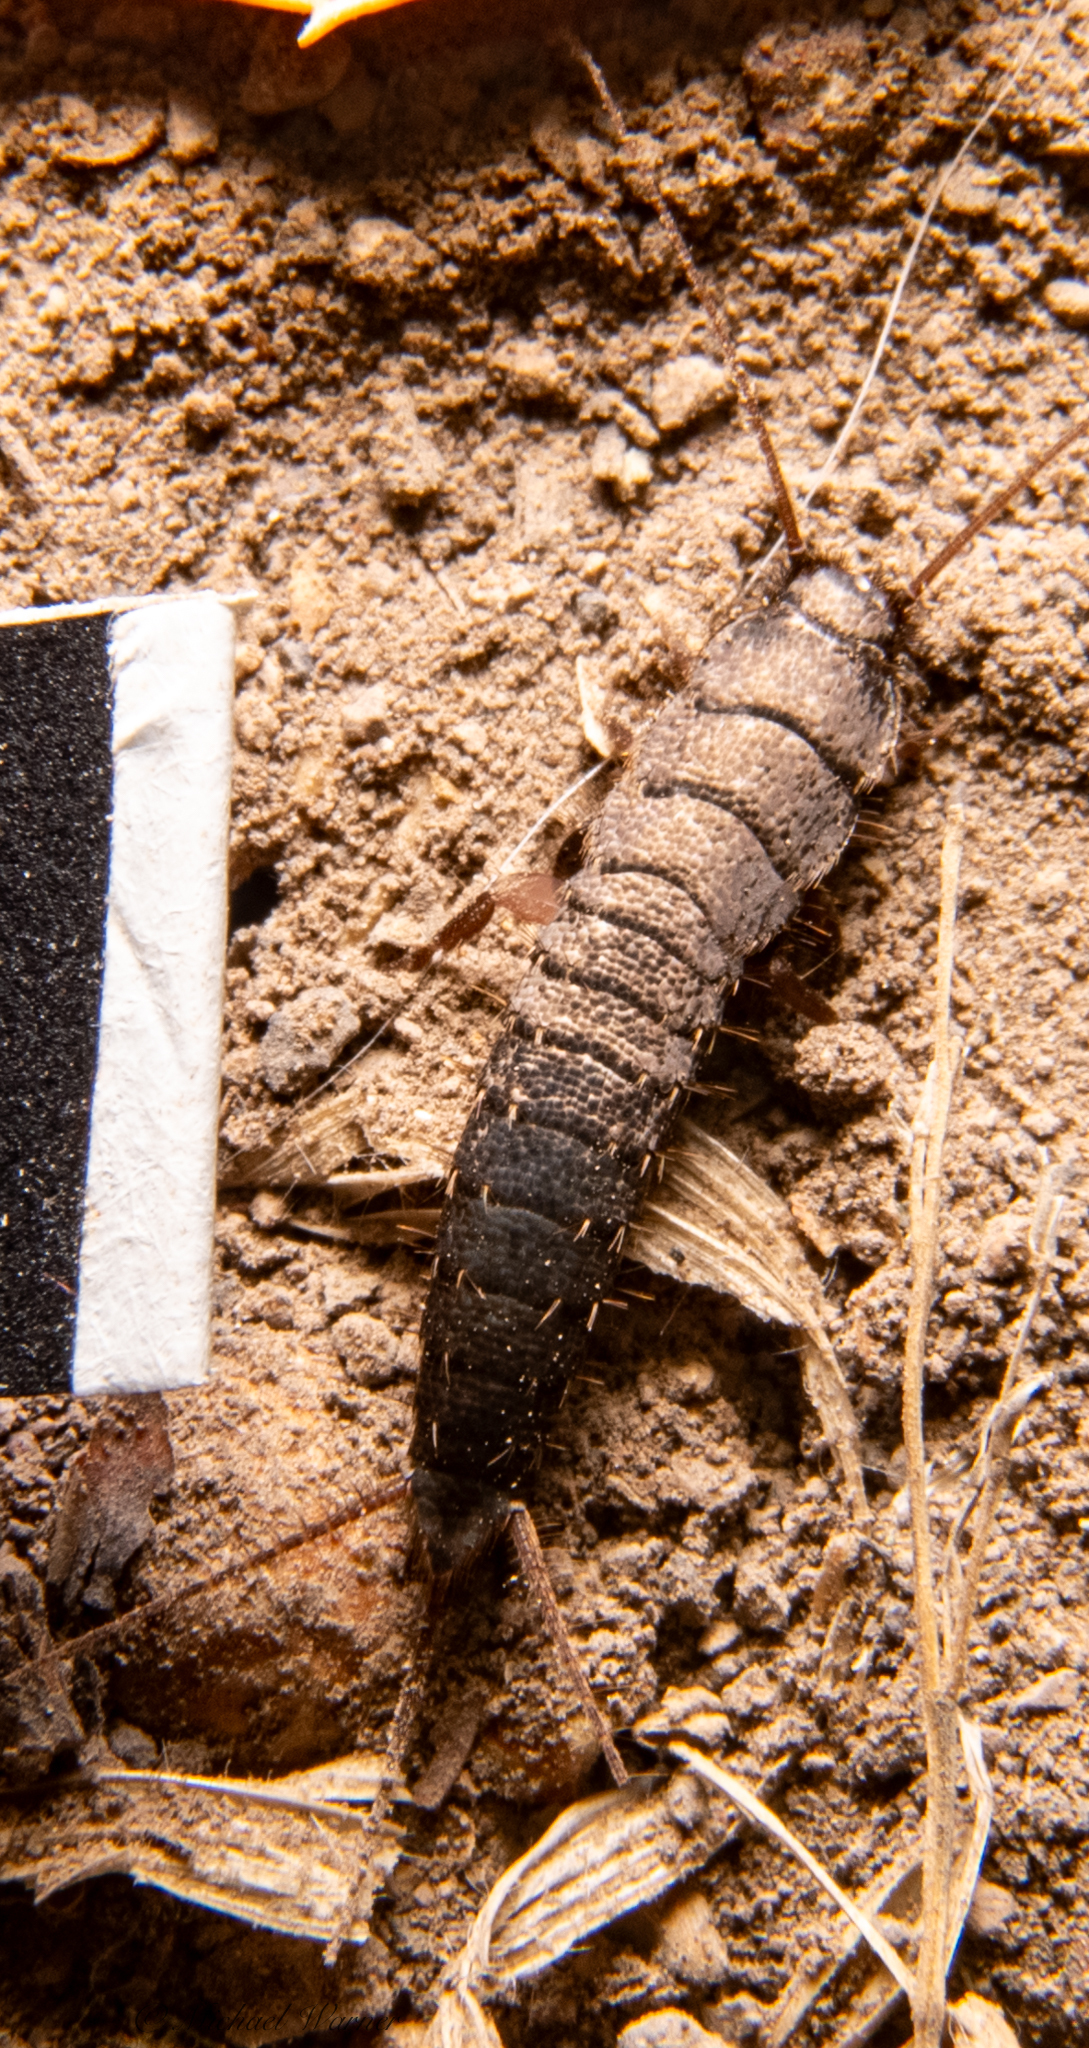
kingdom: Animalia
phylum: Arthropoda
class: Insecta
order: Zygentoma
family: Lepismatidae
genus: Allacrotelsa
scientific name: Allacrotelsa spinulata
